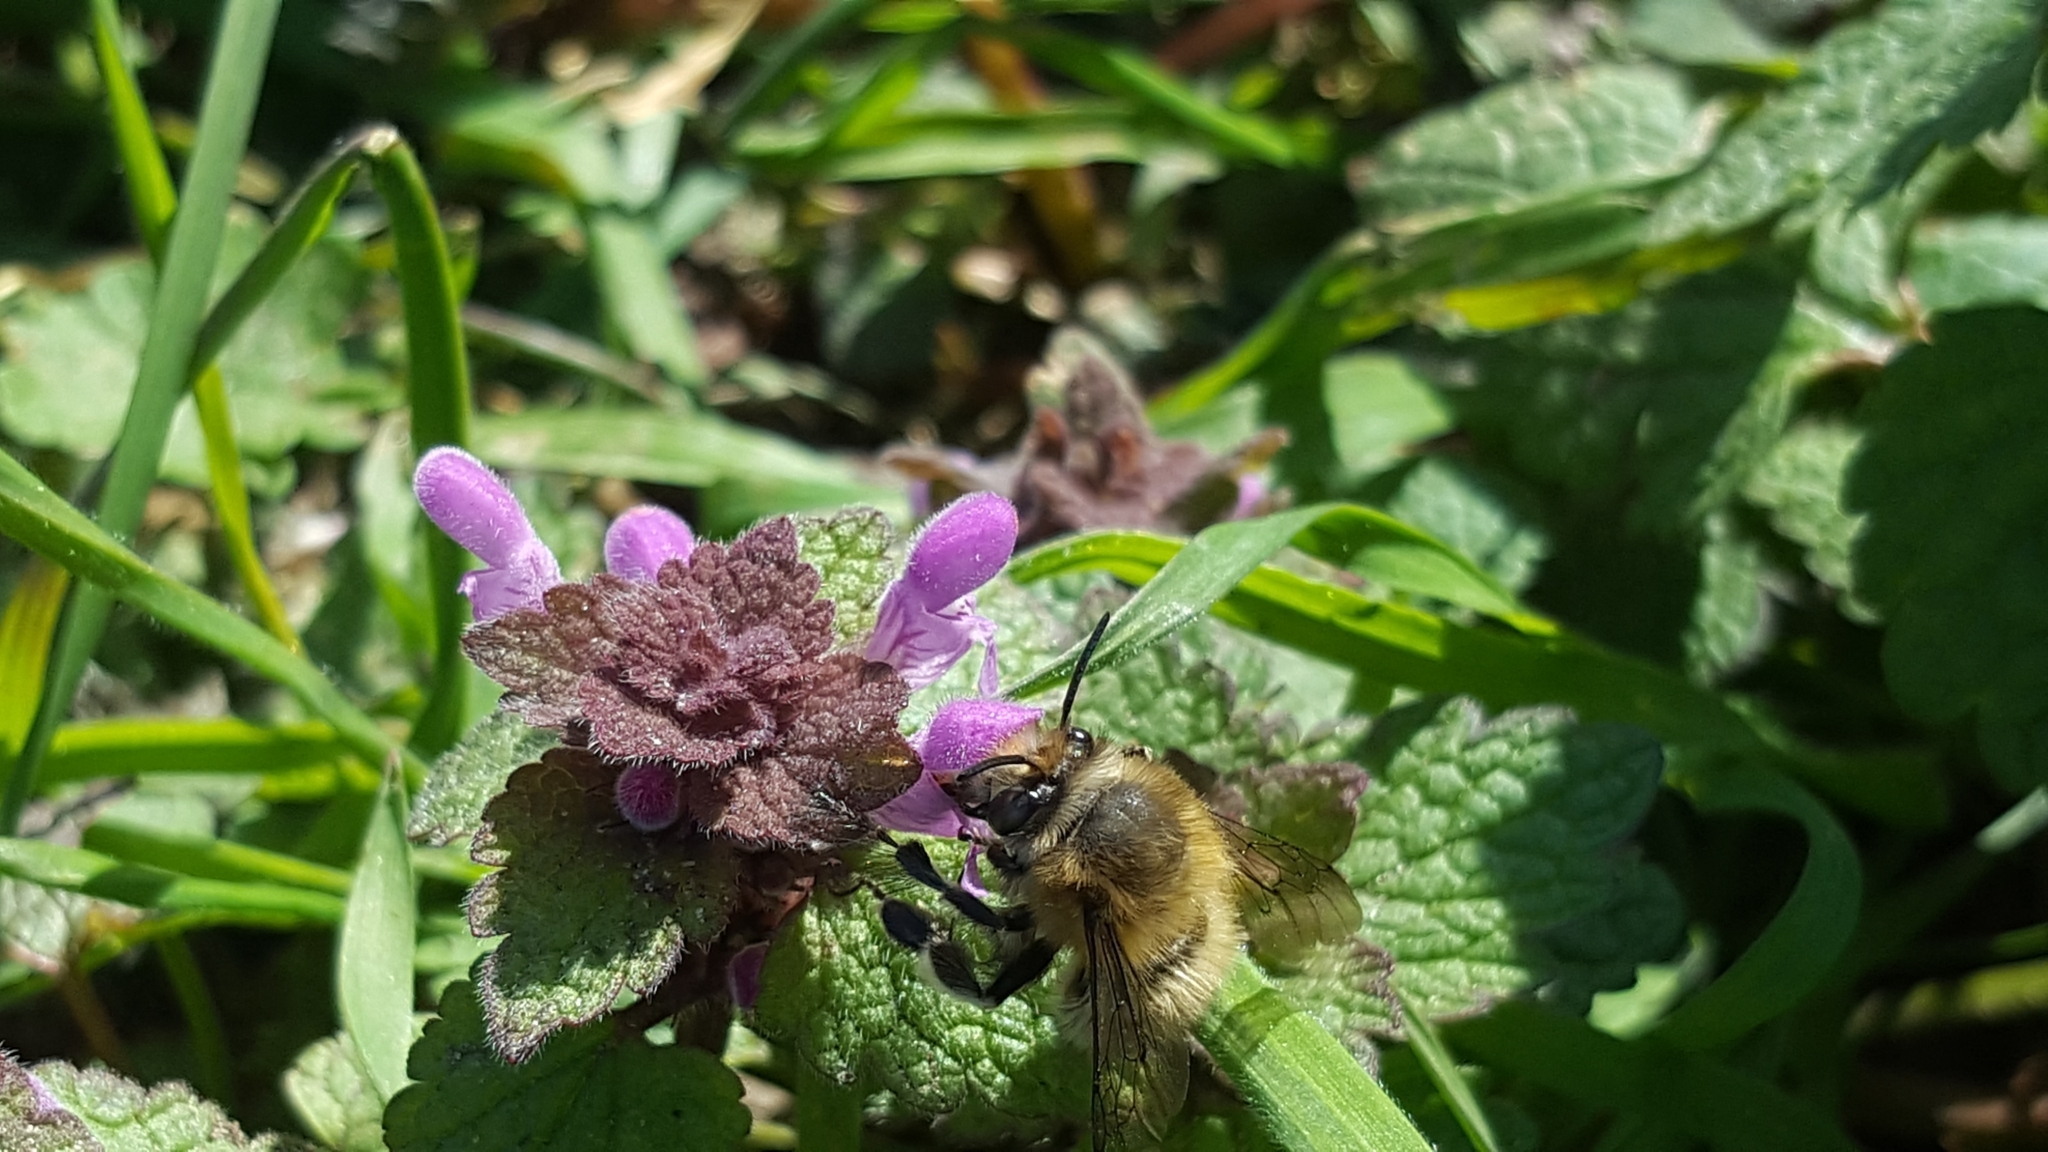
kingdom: Animalia
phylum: Arthropoda
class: Insecta
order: Hymenoptera
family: Apidae
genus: Anthophora
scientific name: Anthophora plumipes
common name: Hairy-footed flower bee
